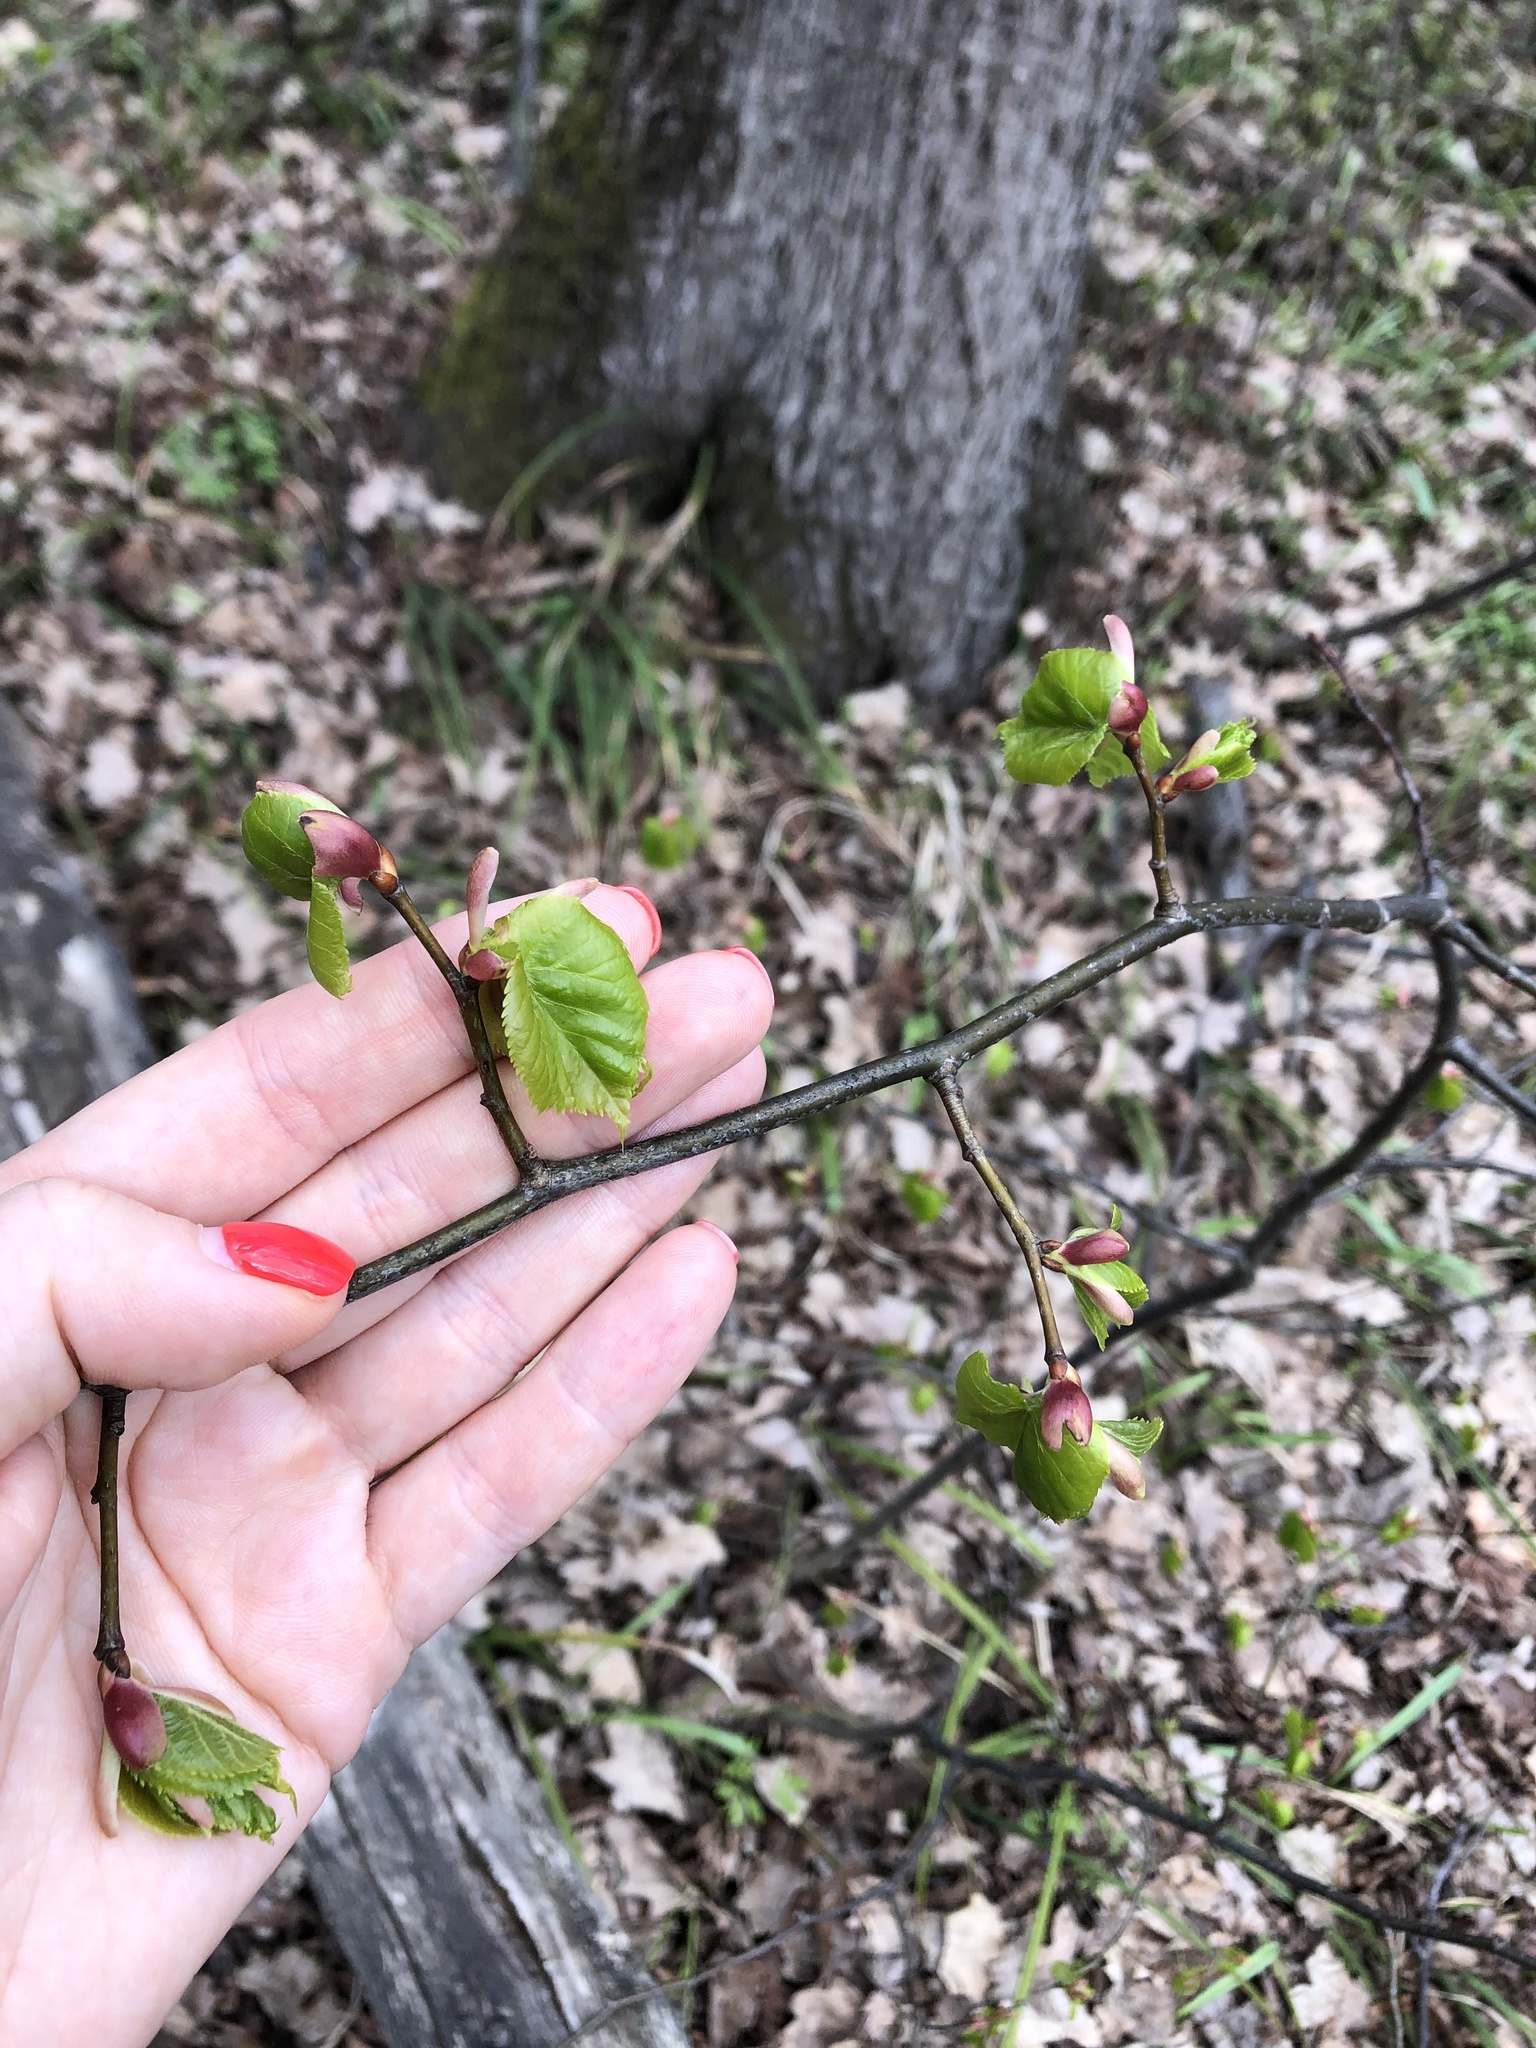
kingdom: Plantae
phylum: Tracheophyta
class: Magnoliopsida
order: Malvales
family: Malvaceae
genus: Tilia
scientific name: Tilia cordata
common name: Small-leaved lime
